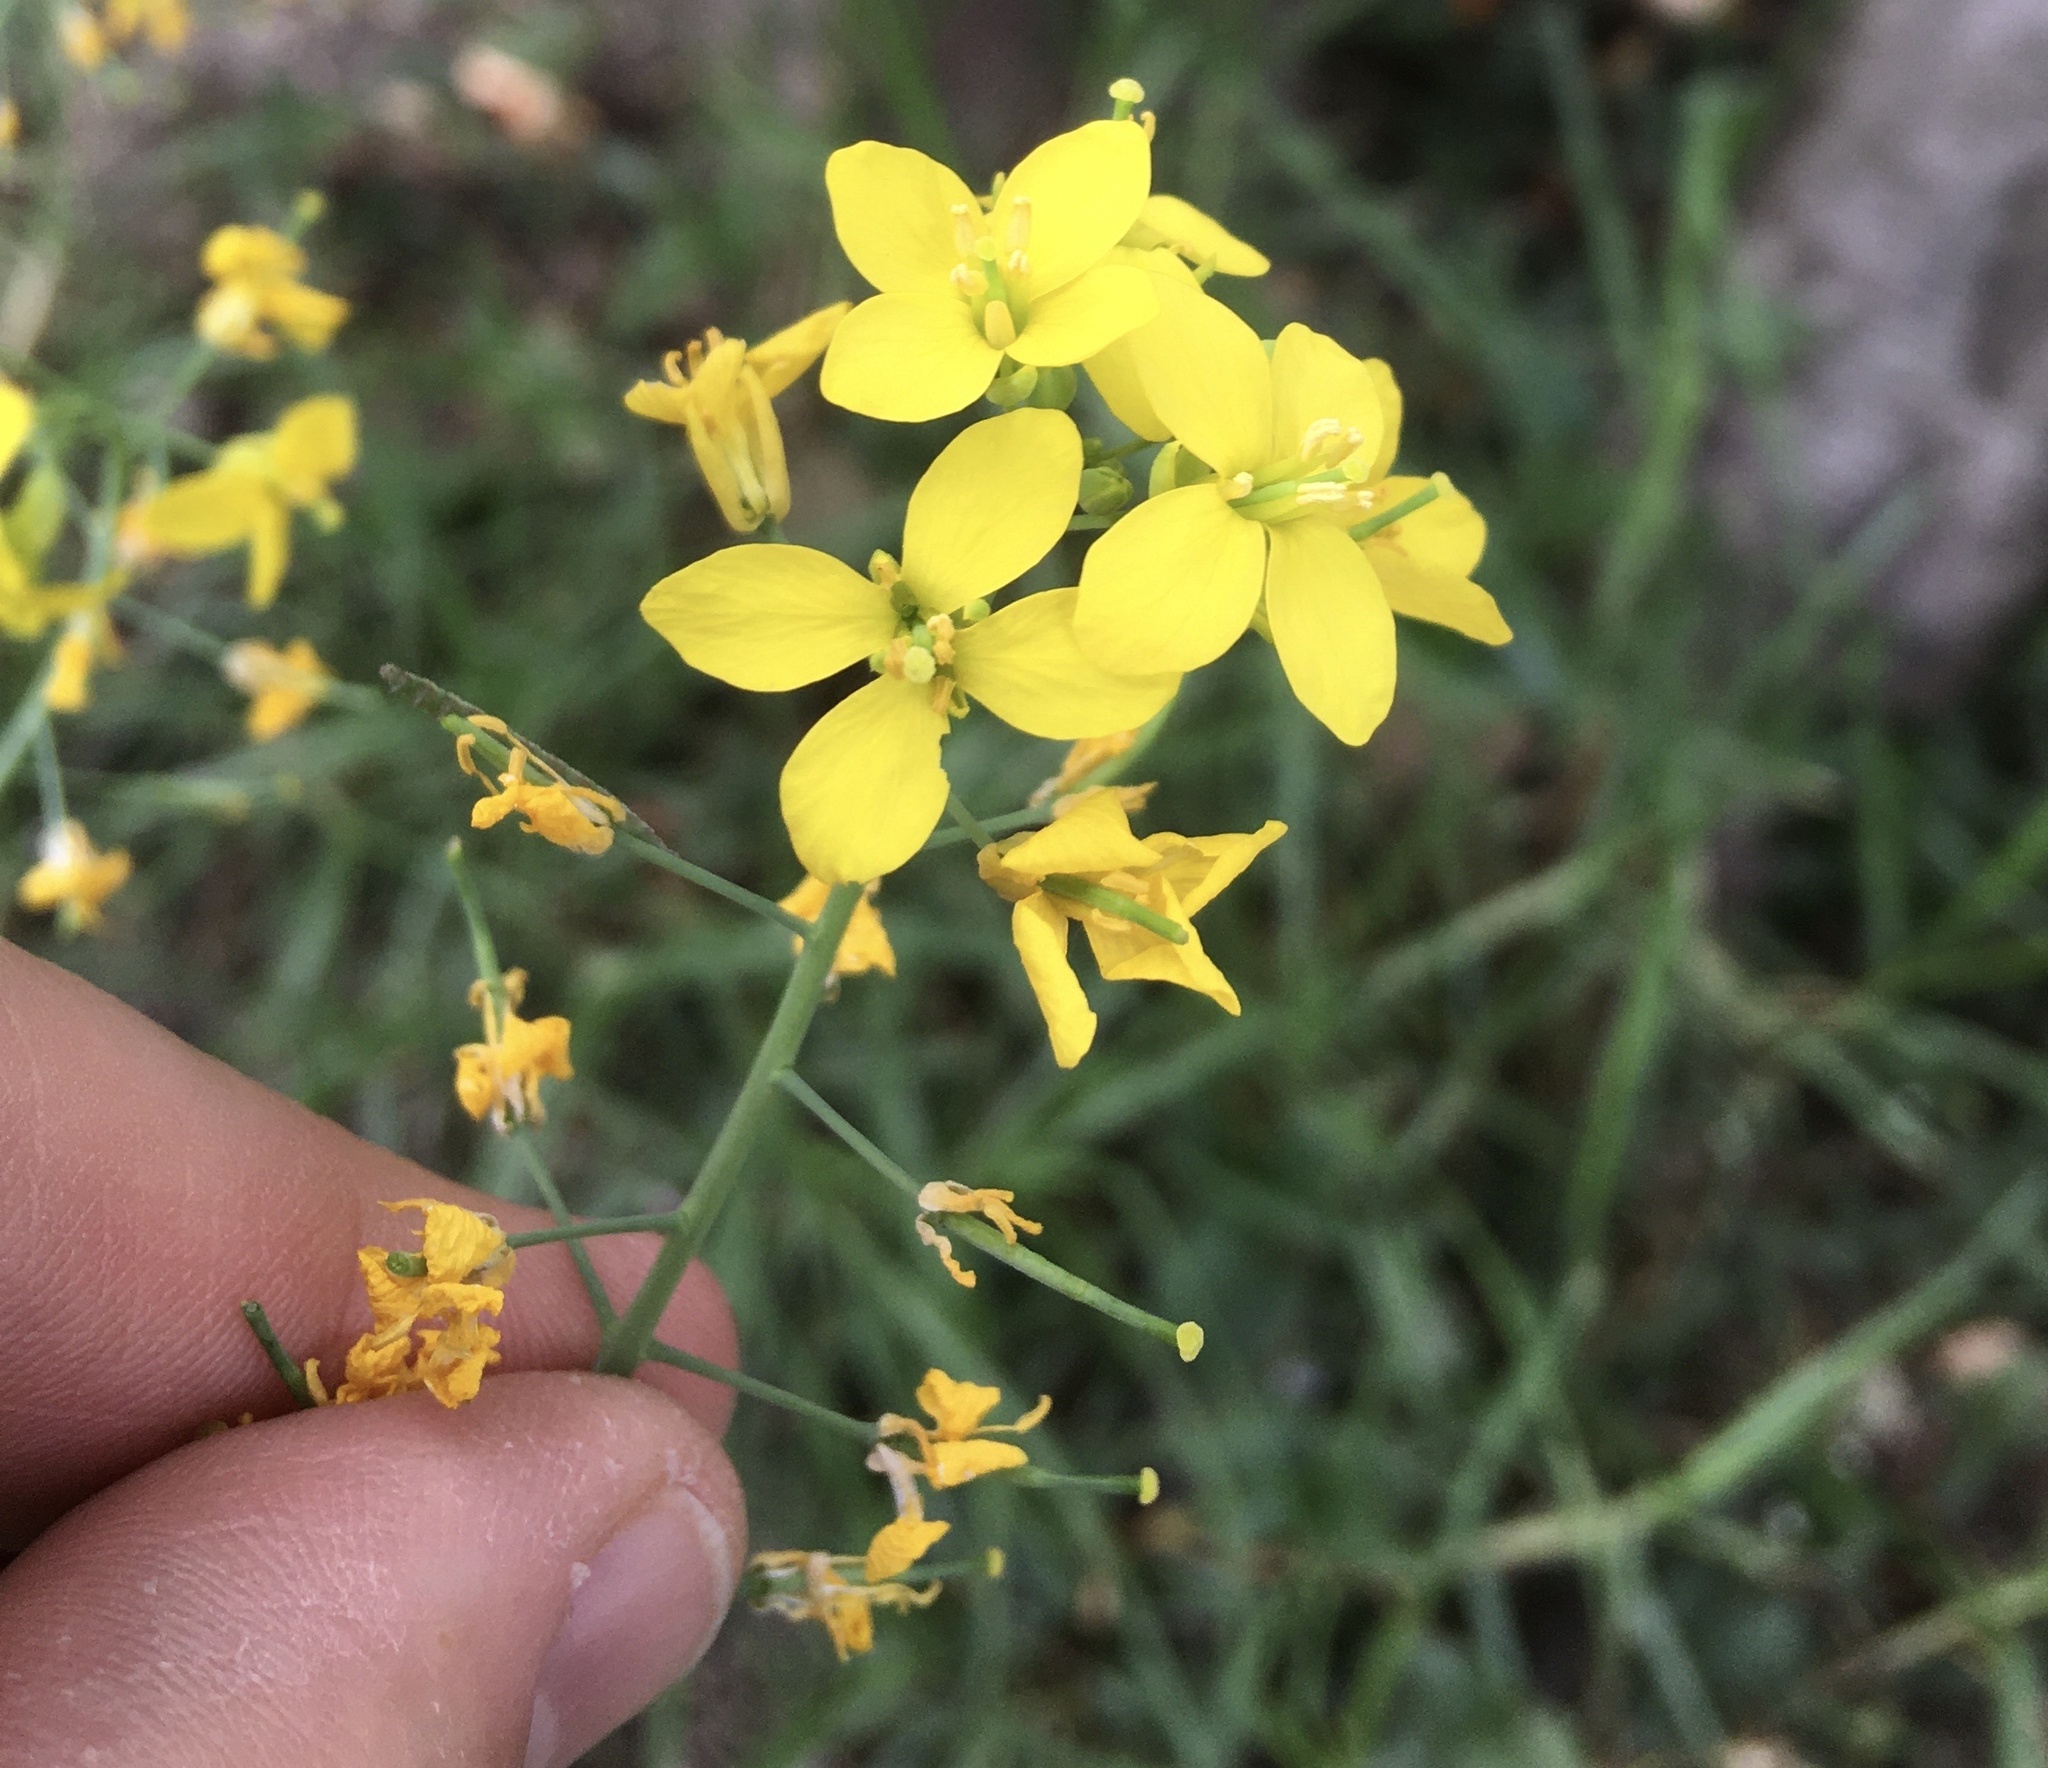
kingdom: Plantae
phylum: Tracheophyta
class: Magnoliopsida
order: Brassicales
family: Brassicaceae
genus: Brassica
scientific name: Brassica rapa
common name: Field mustard
